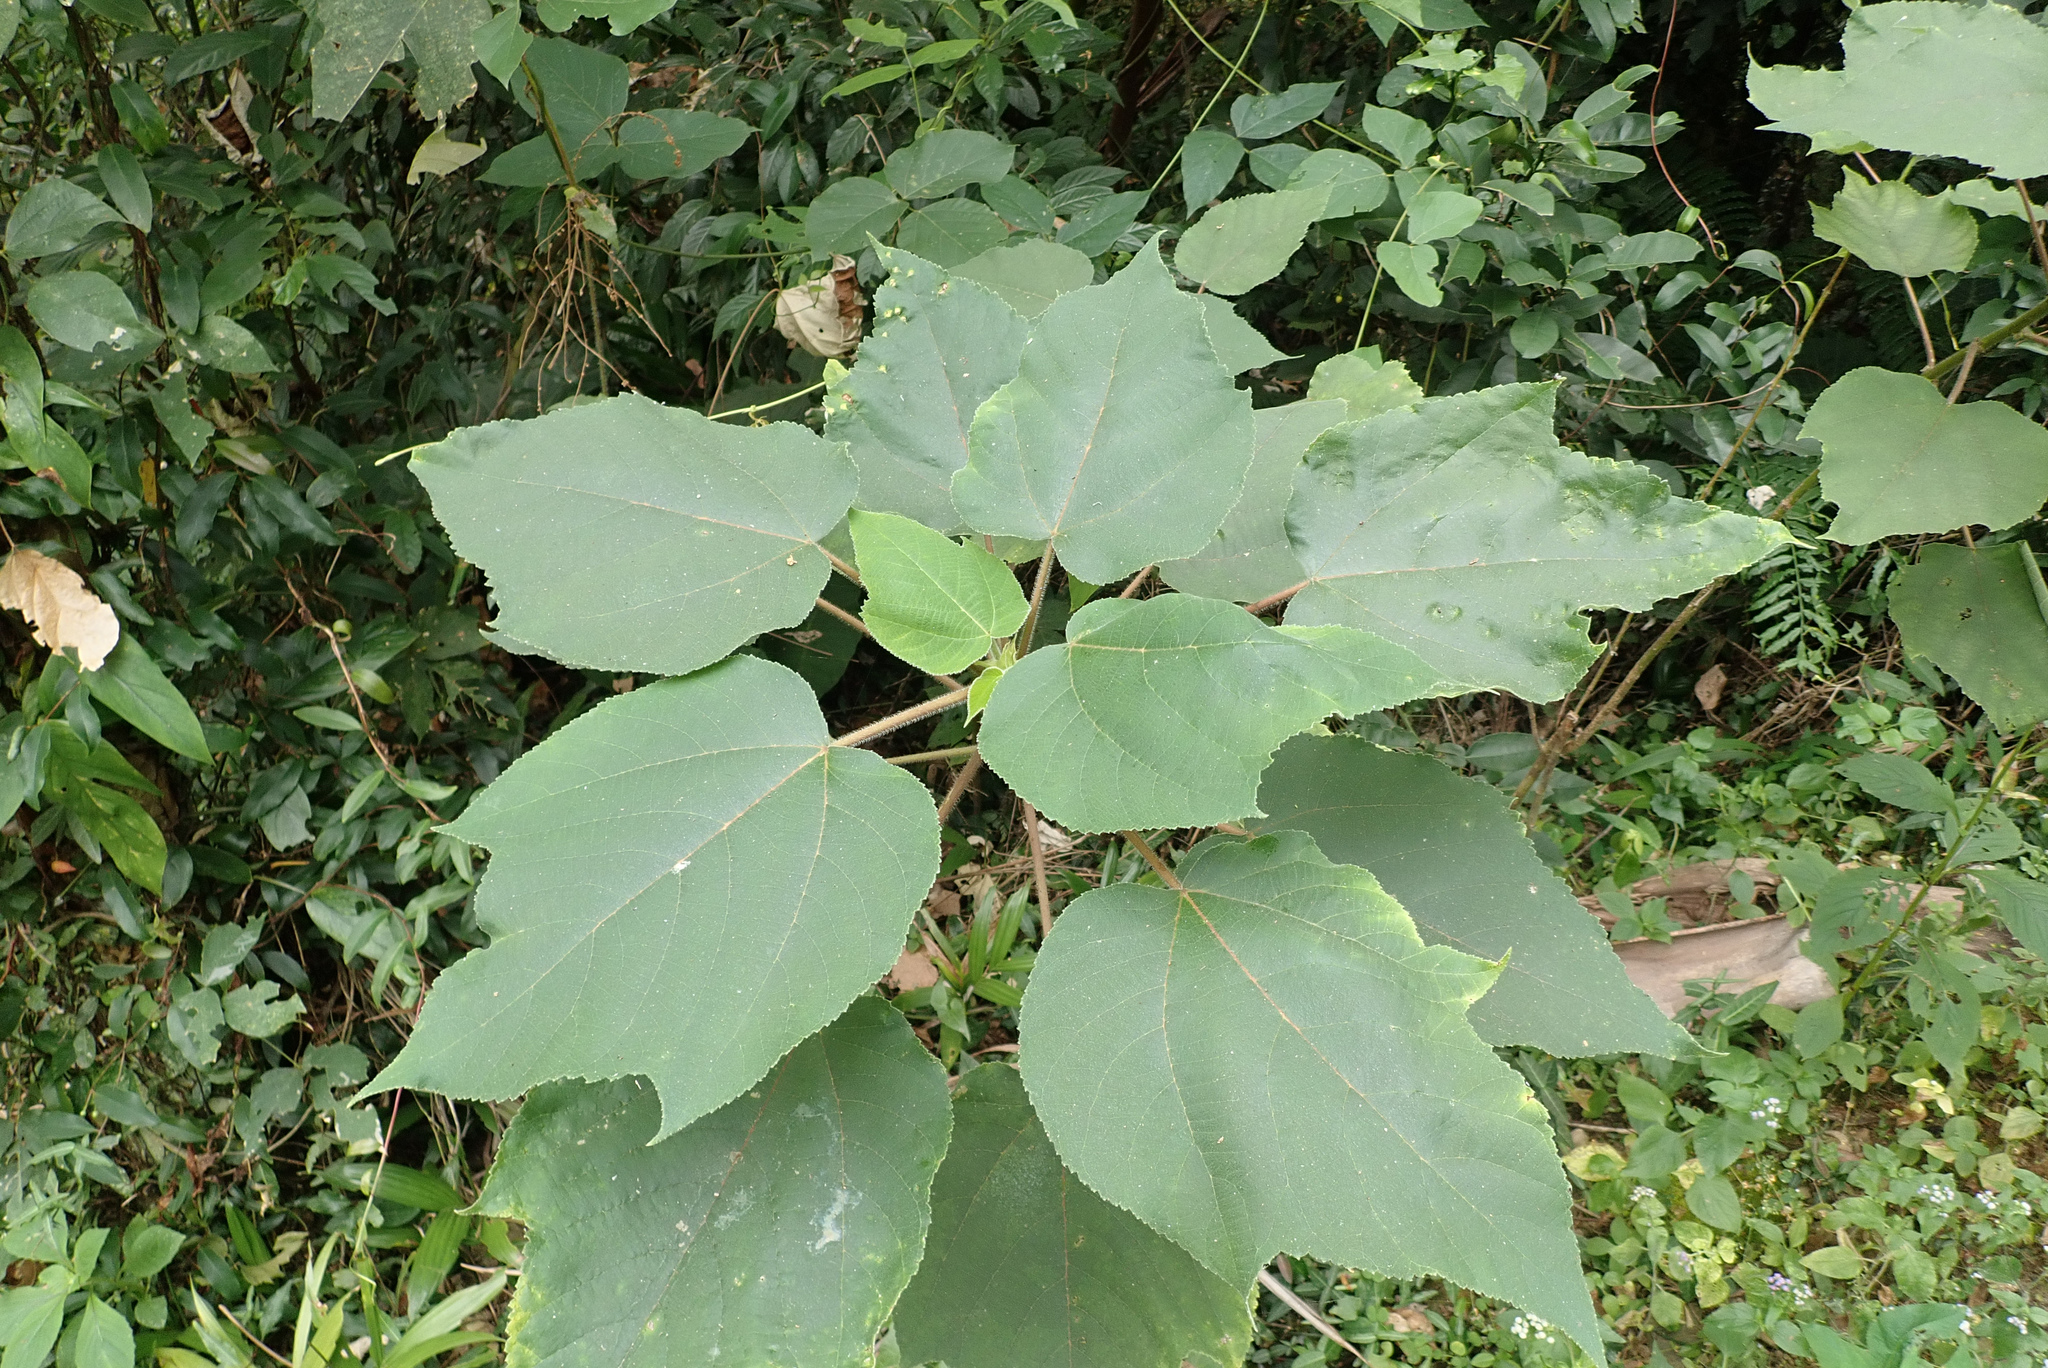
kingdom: Plantae
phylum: Tracheophyta
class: Magnoliopsida
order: Rosales
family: Moraceae
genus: Broussonetia
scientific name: Broussonetia papyrifera
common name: Paper mulberry
